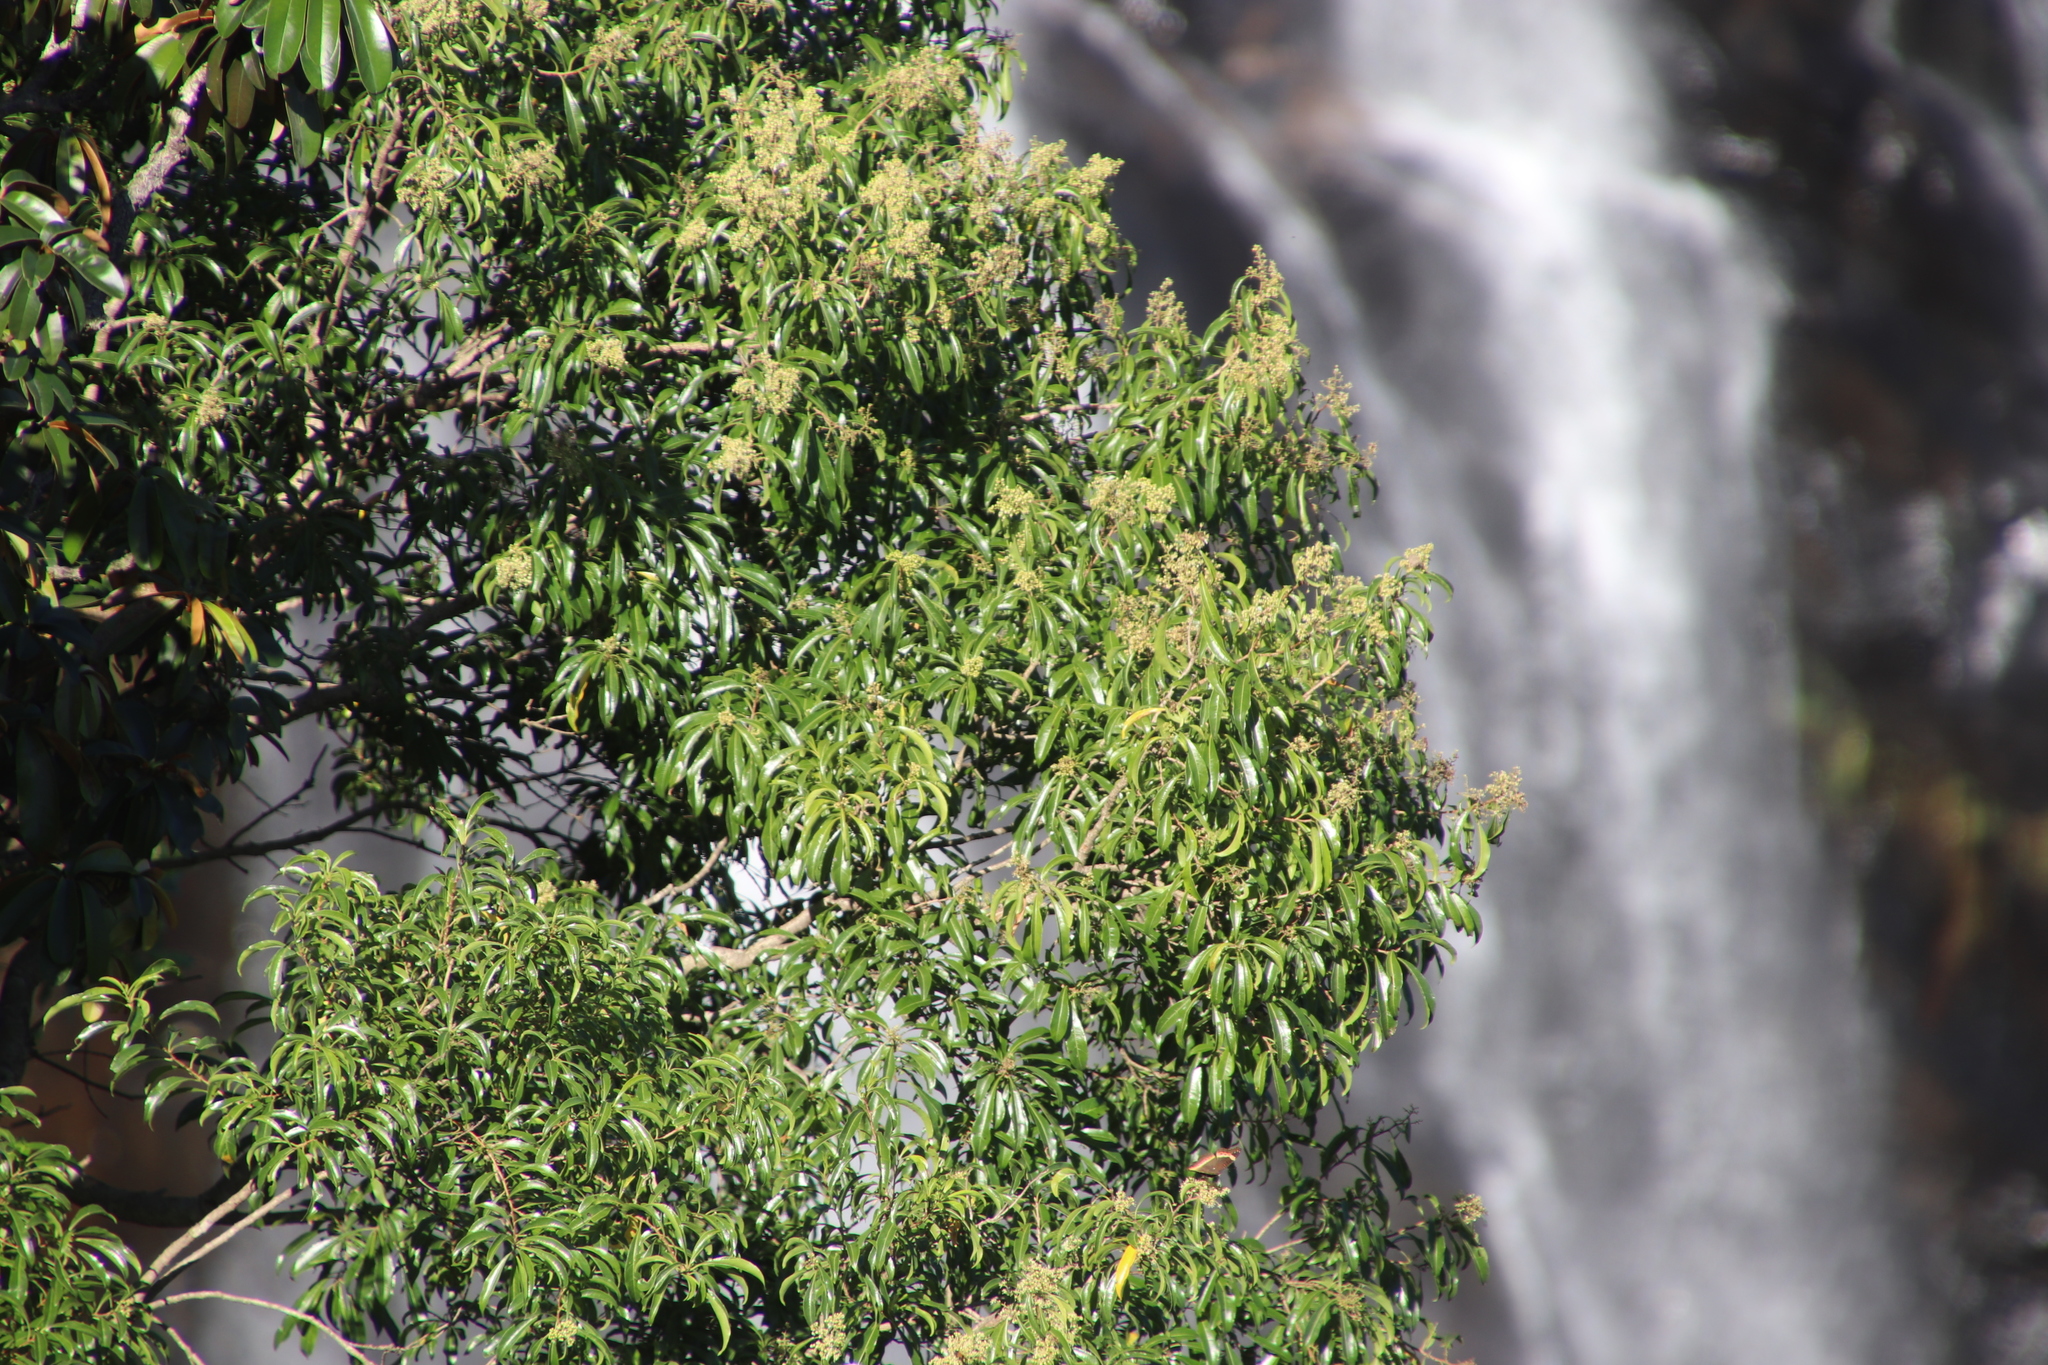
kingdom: Animalia
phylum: Arthropoda
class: Insecta
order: Lepidoptera
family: Nymphalidae
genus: Junonia
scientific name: Junonia archesia
